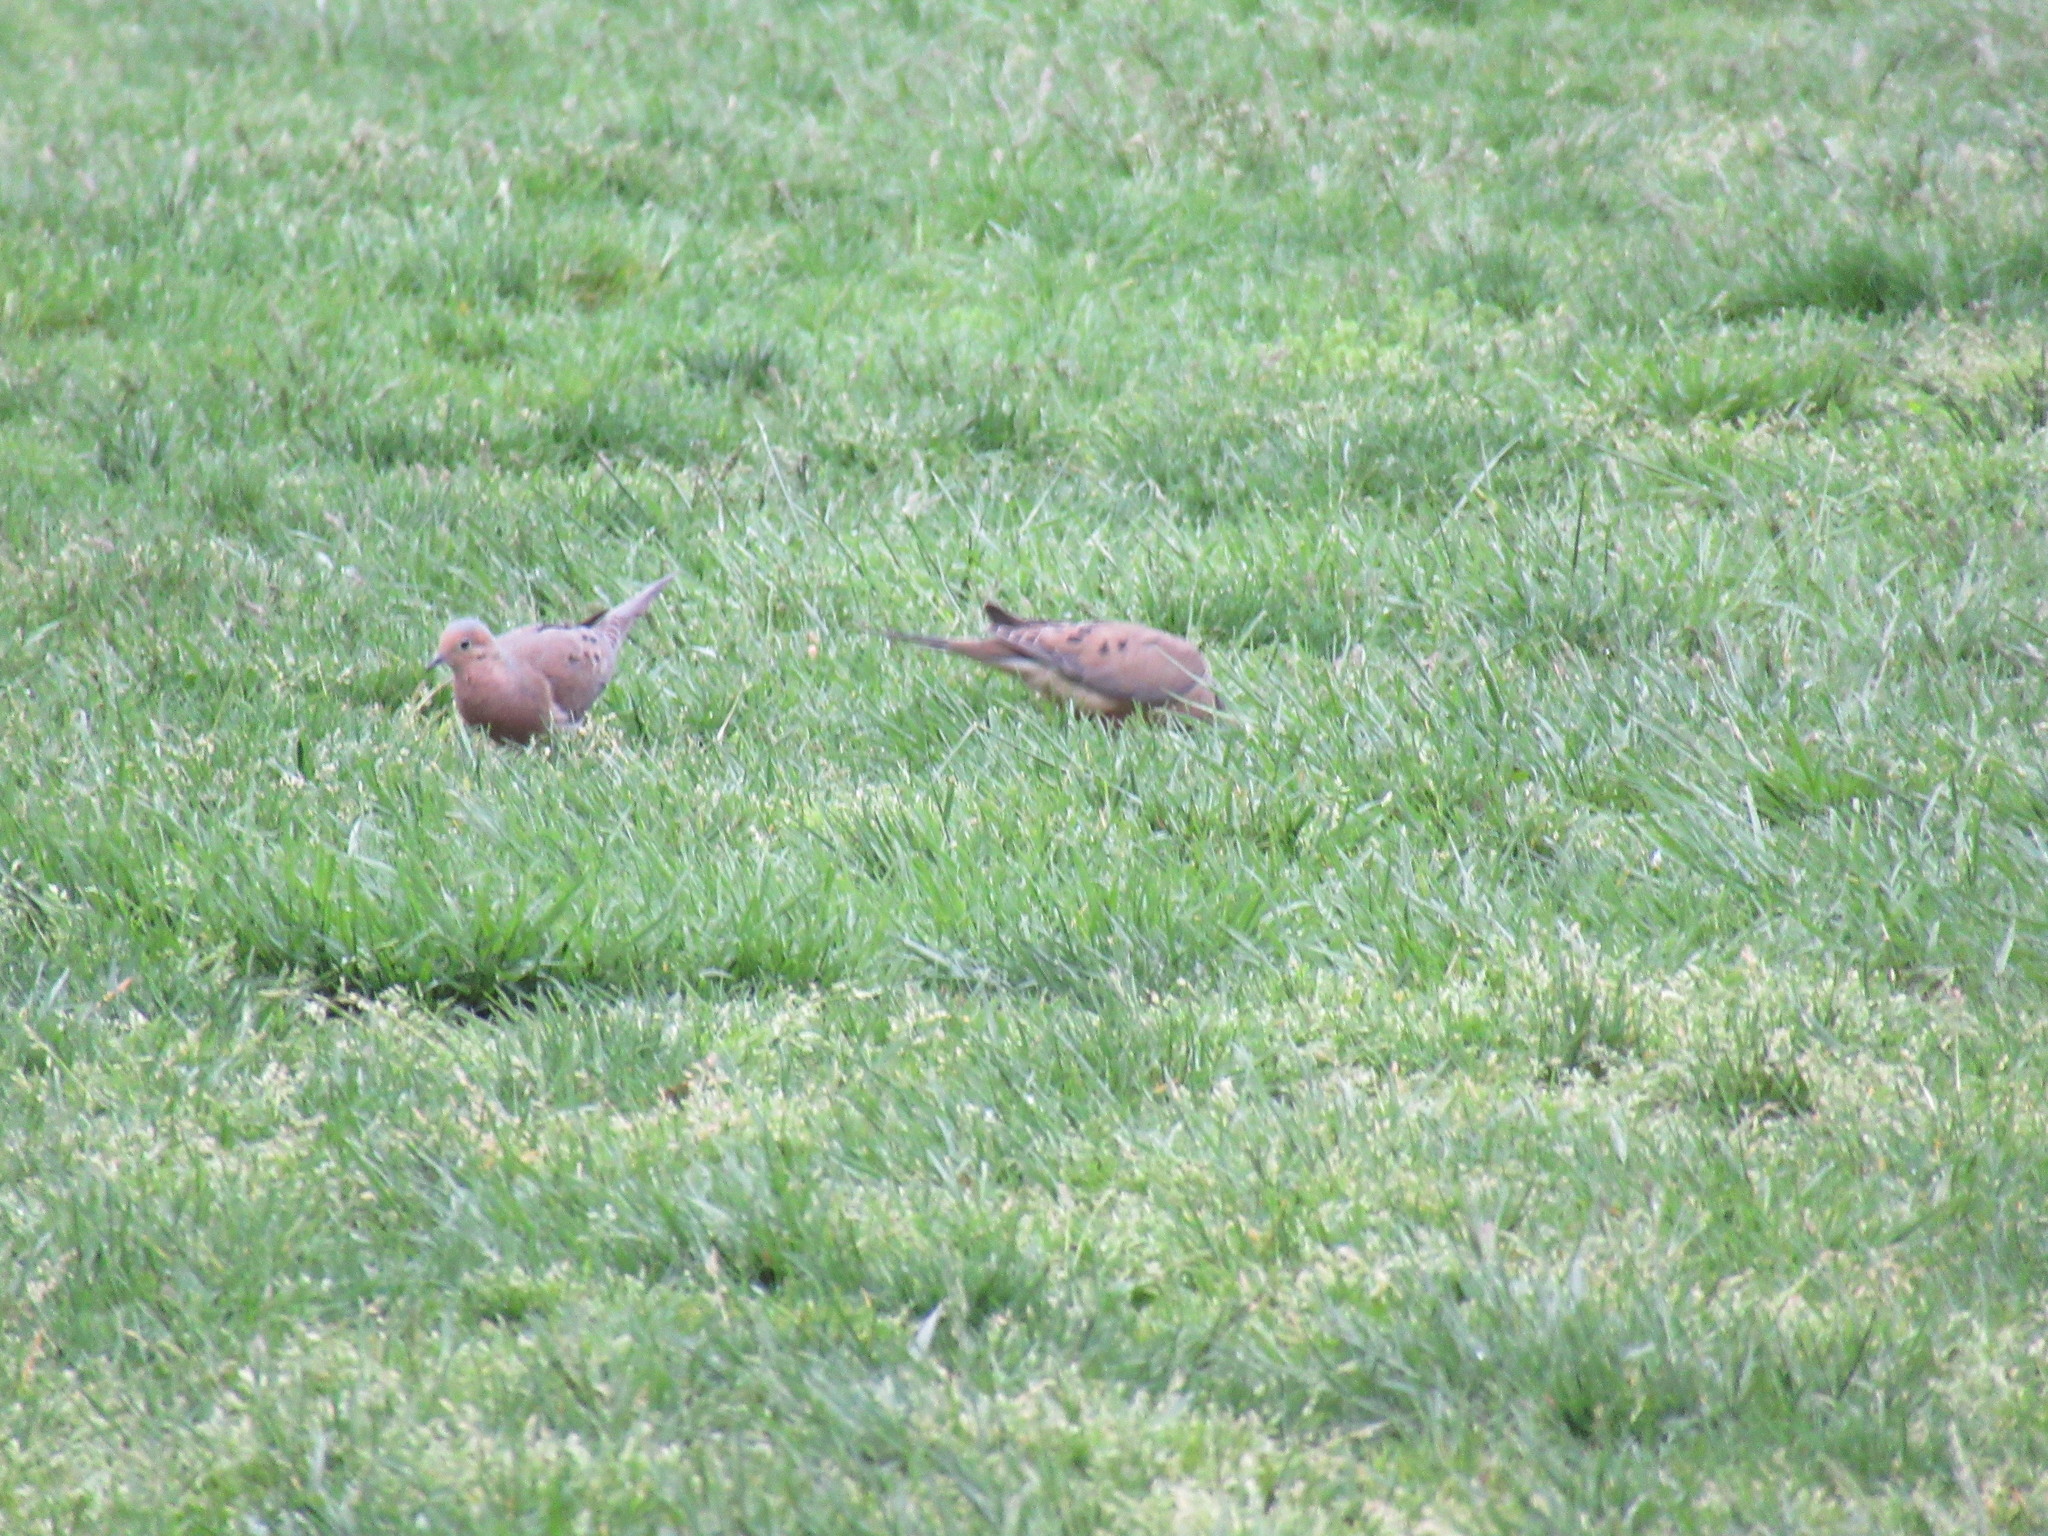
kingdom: Animalia
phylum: Chordata
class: Aves
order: Columbiformes
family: Columbidae
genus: Zenaida
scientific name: Zenaida macroura
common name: Mourning dove
